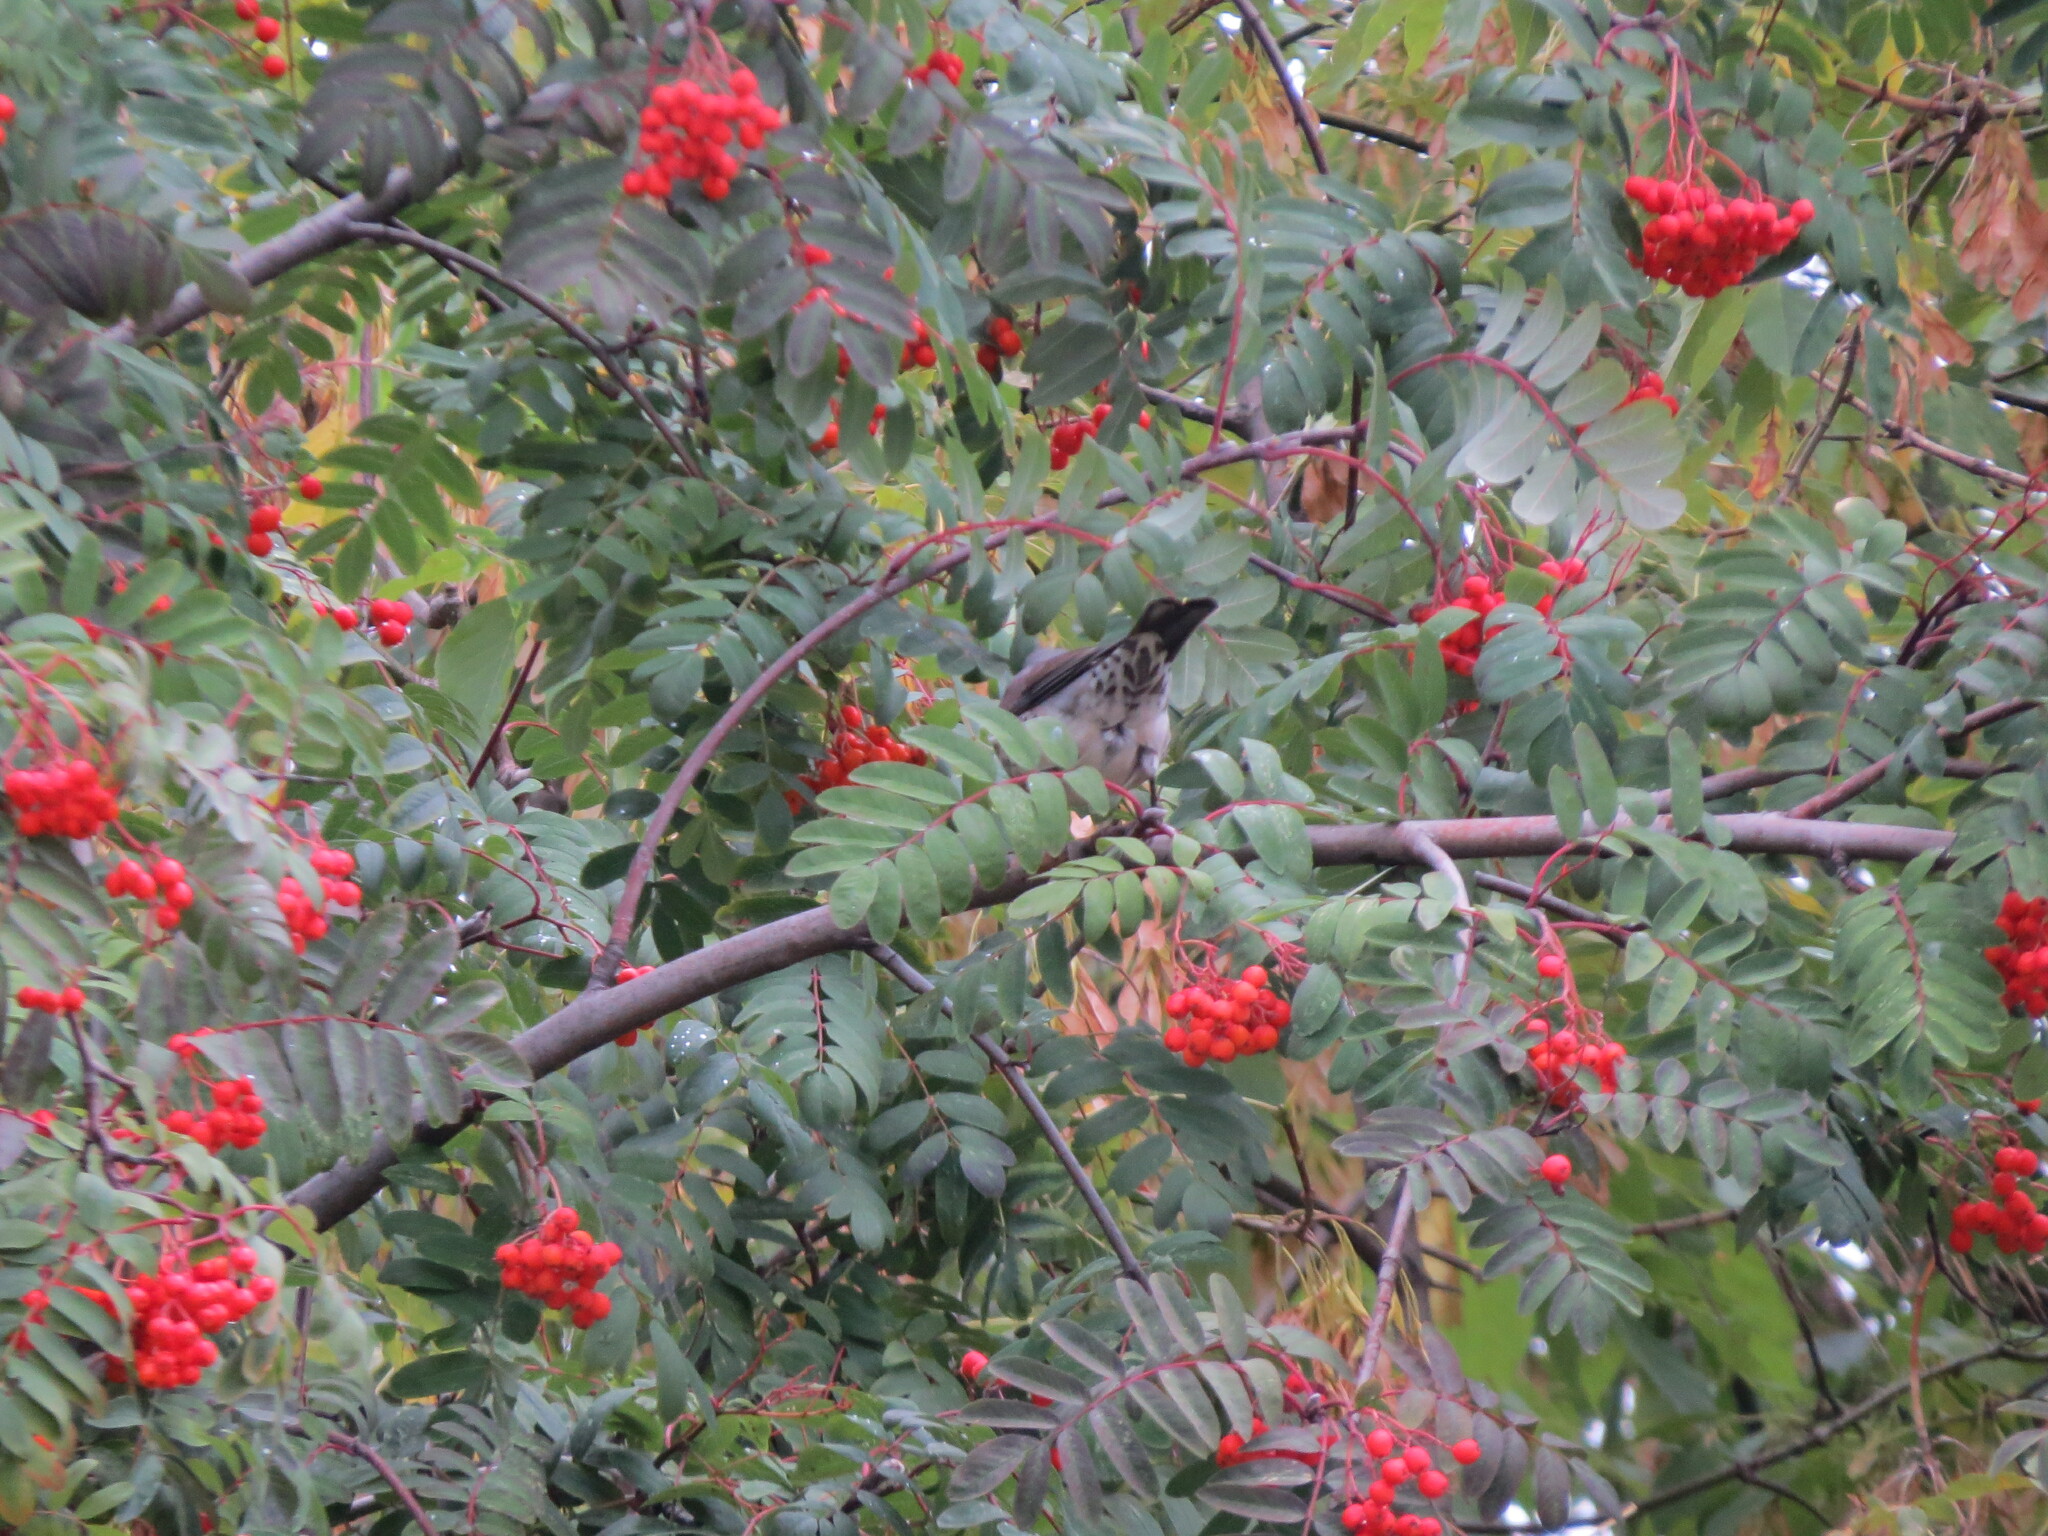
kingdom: Animalia
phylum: Chordata
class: Aves
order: Passeriformes
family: Turdidae
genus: Turdus
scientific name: Turdus pilaris
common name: Fieldfare
